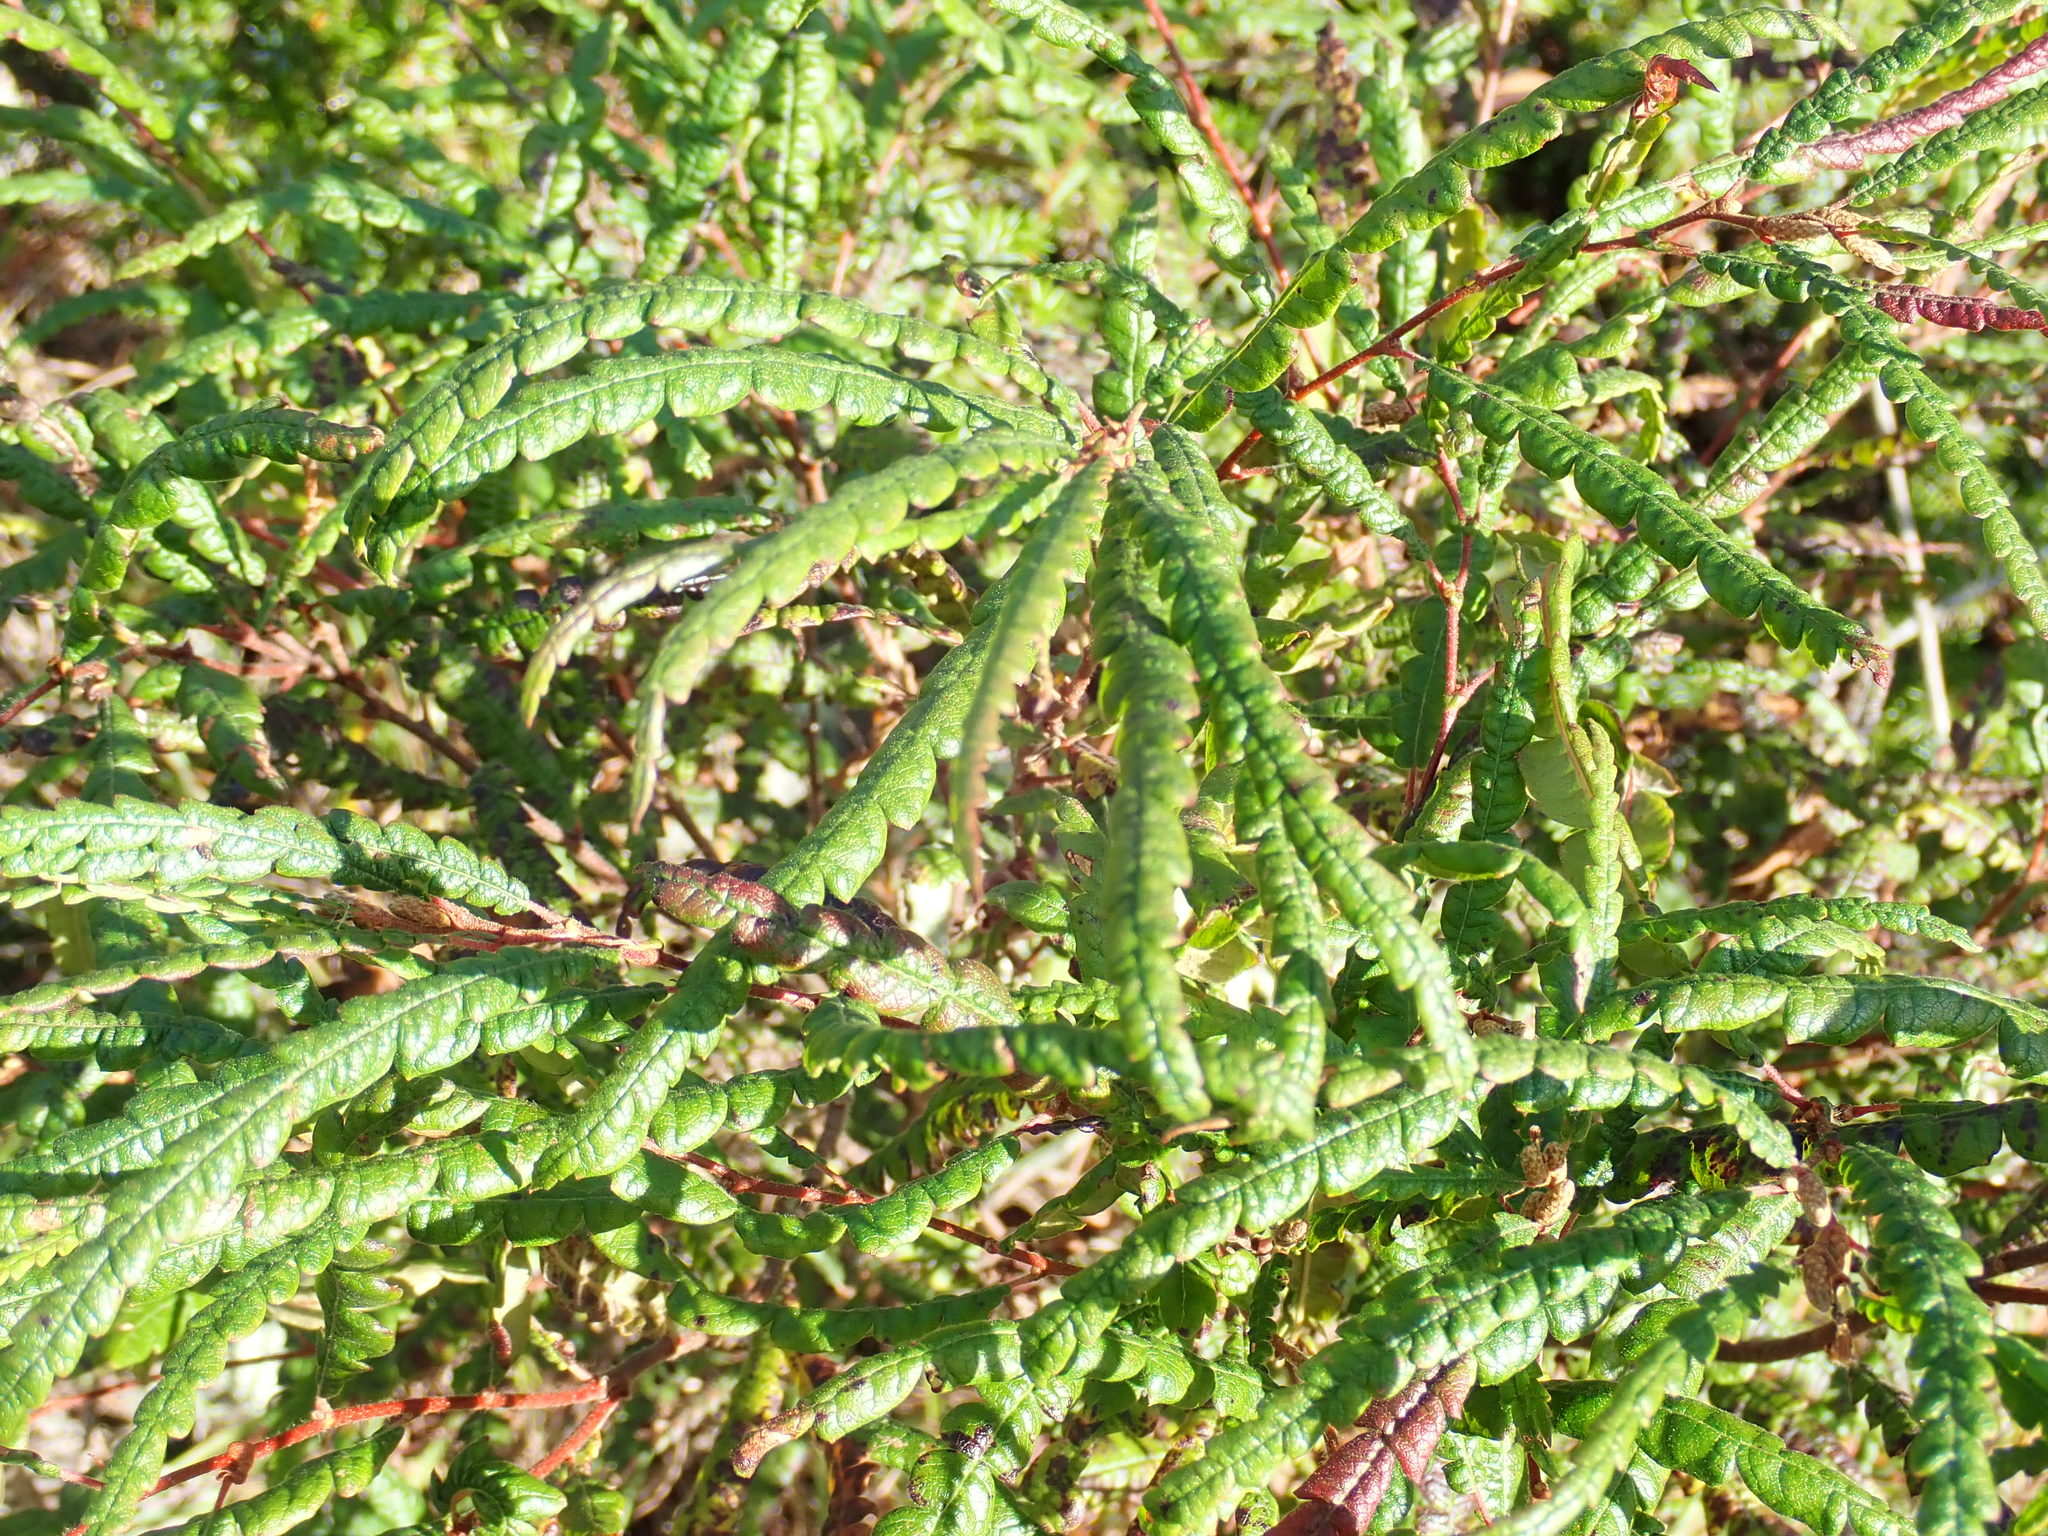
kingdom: Plantae
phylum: Tracheophyta
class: Magnoliopsida
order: Fagales
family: Myricaceae
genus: Comptonia
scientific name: Comptonia peregrina
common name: Sweet-fern
